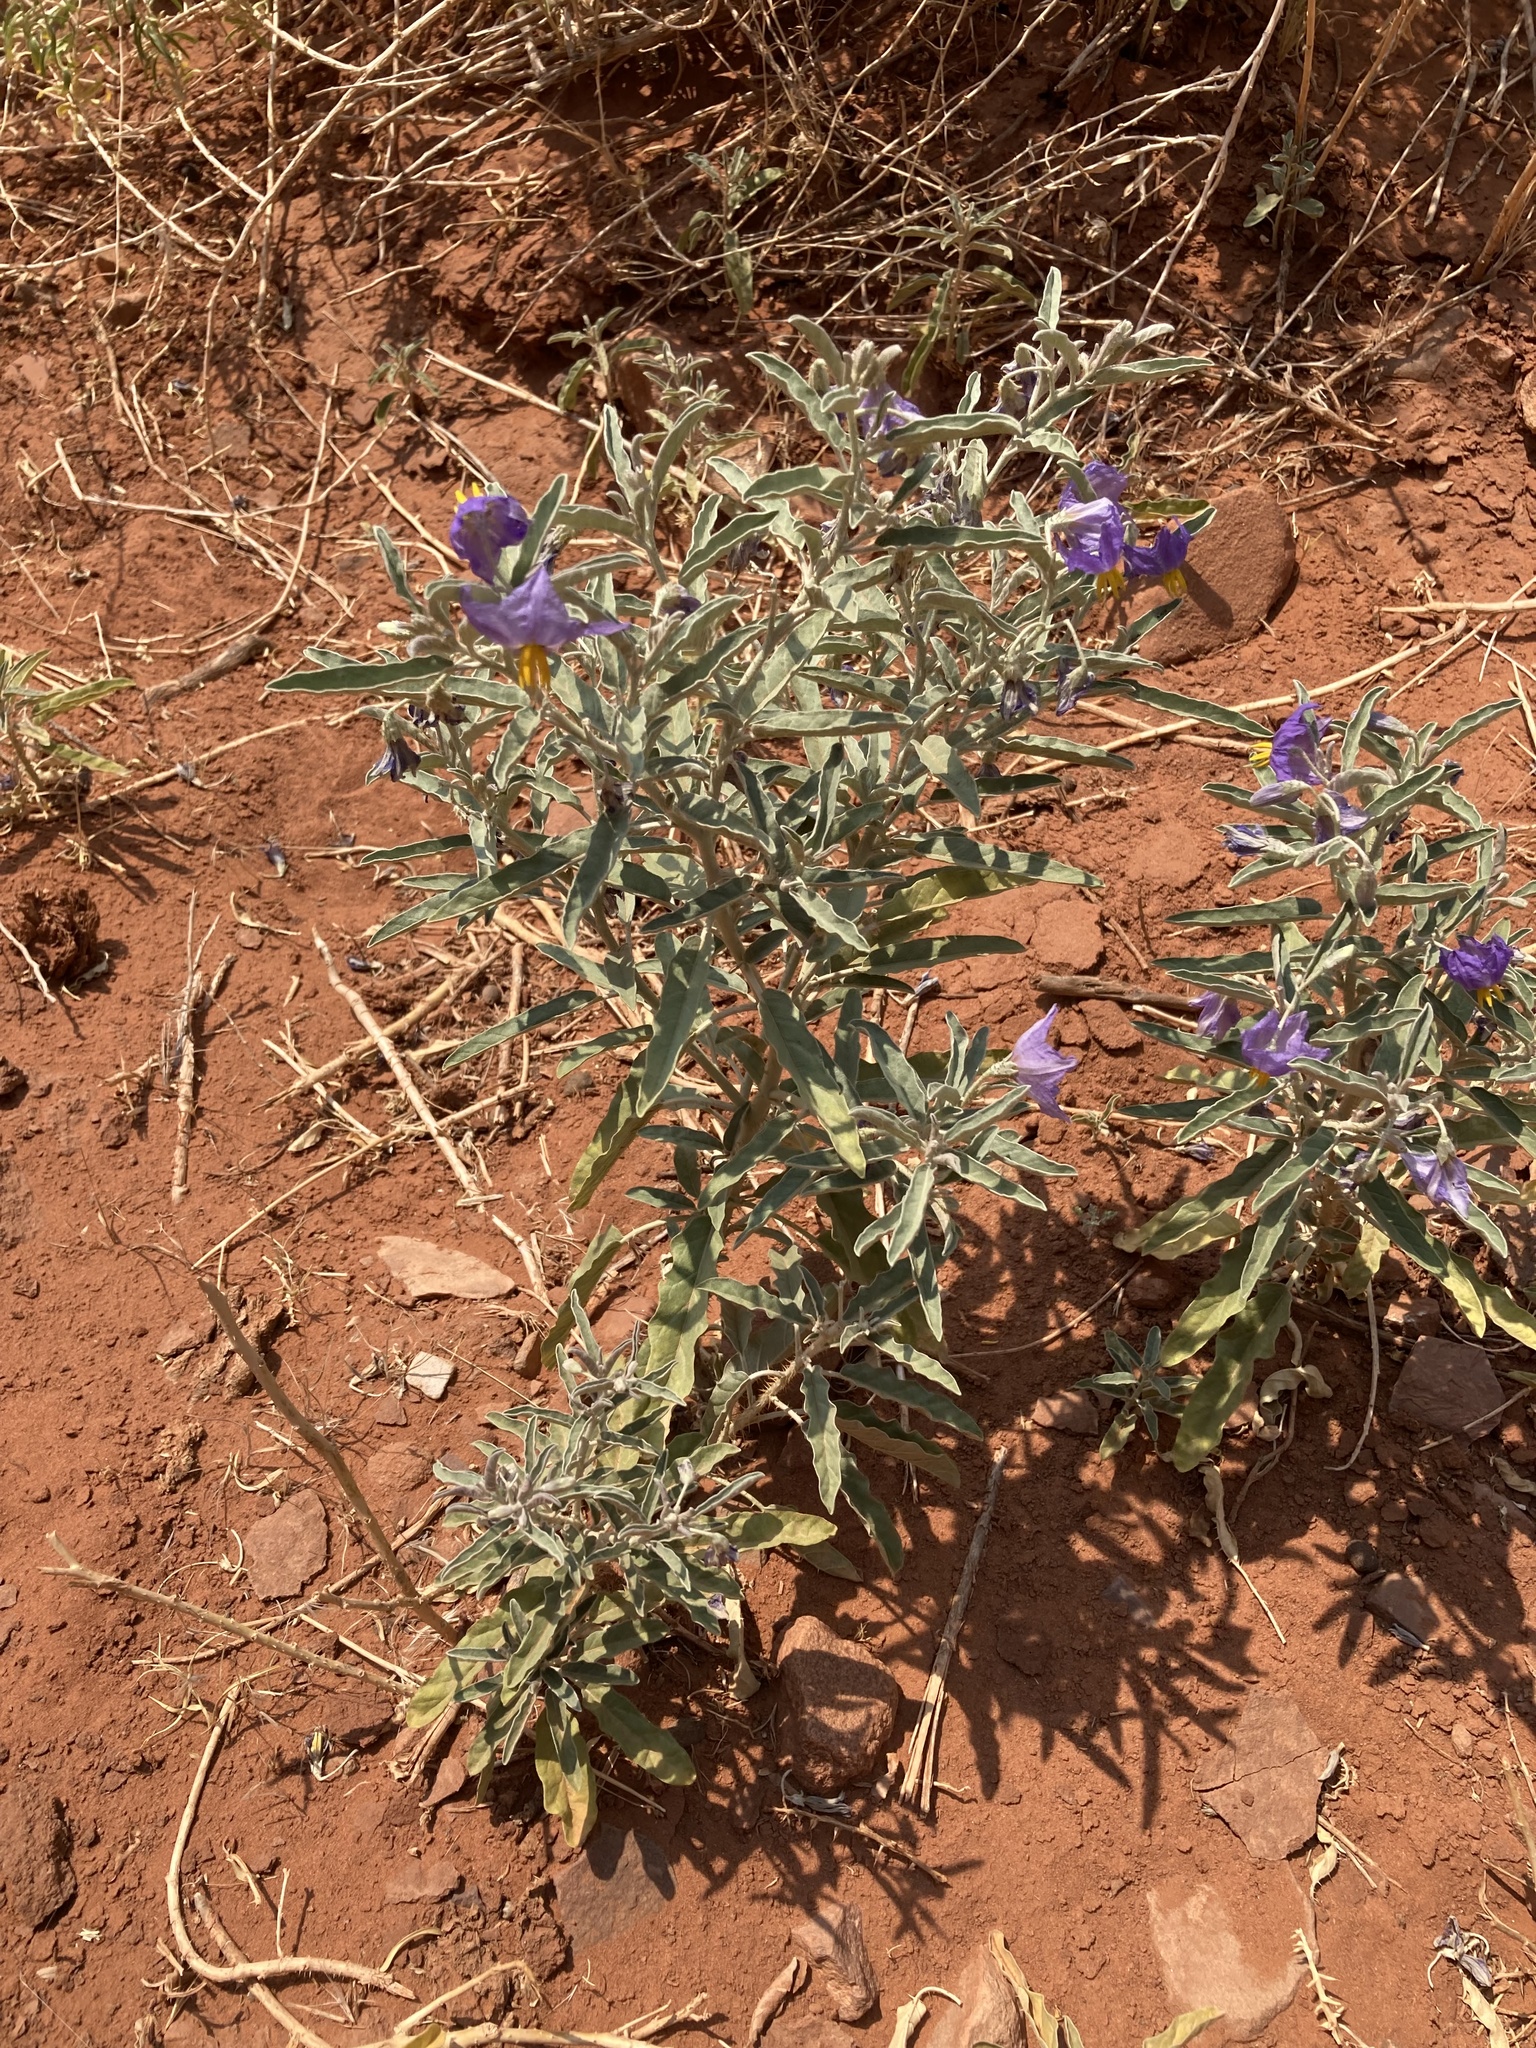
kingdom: Plantae
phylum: Tracheophyta
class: Magnoliopsida
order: Solanales
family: Solanaceae
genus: Solanum
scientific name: Solanum elaeagnifolium
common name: Silverleaf nightshade
